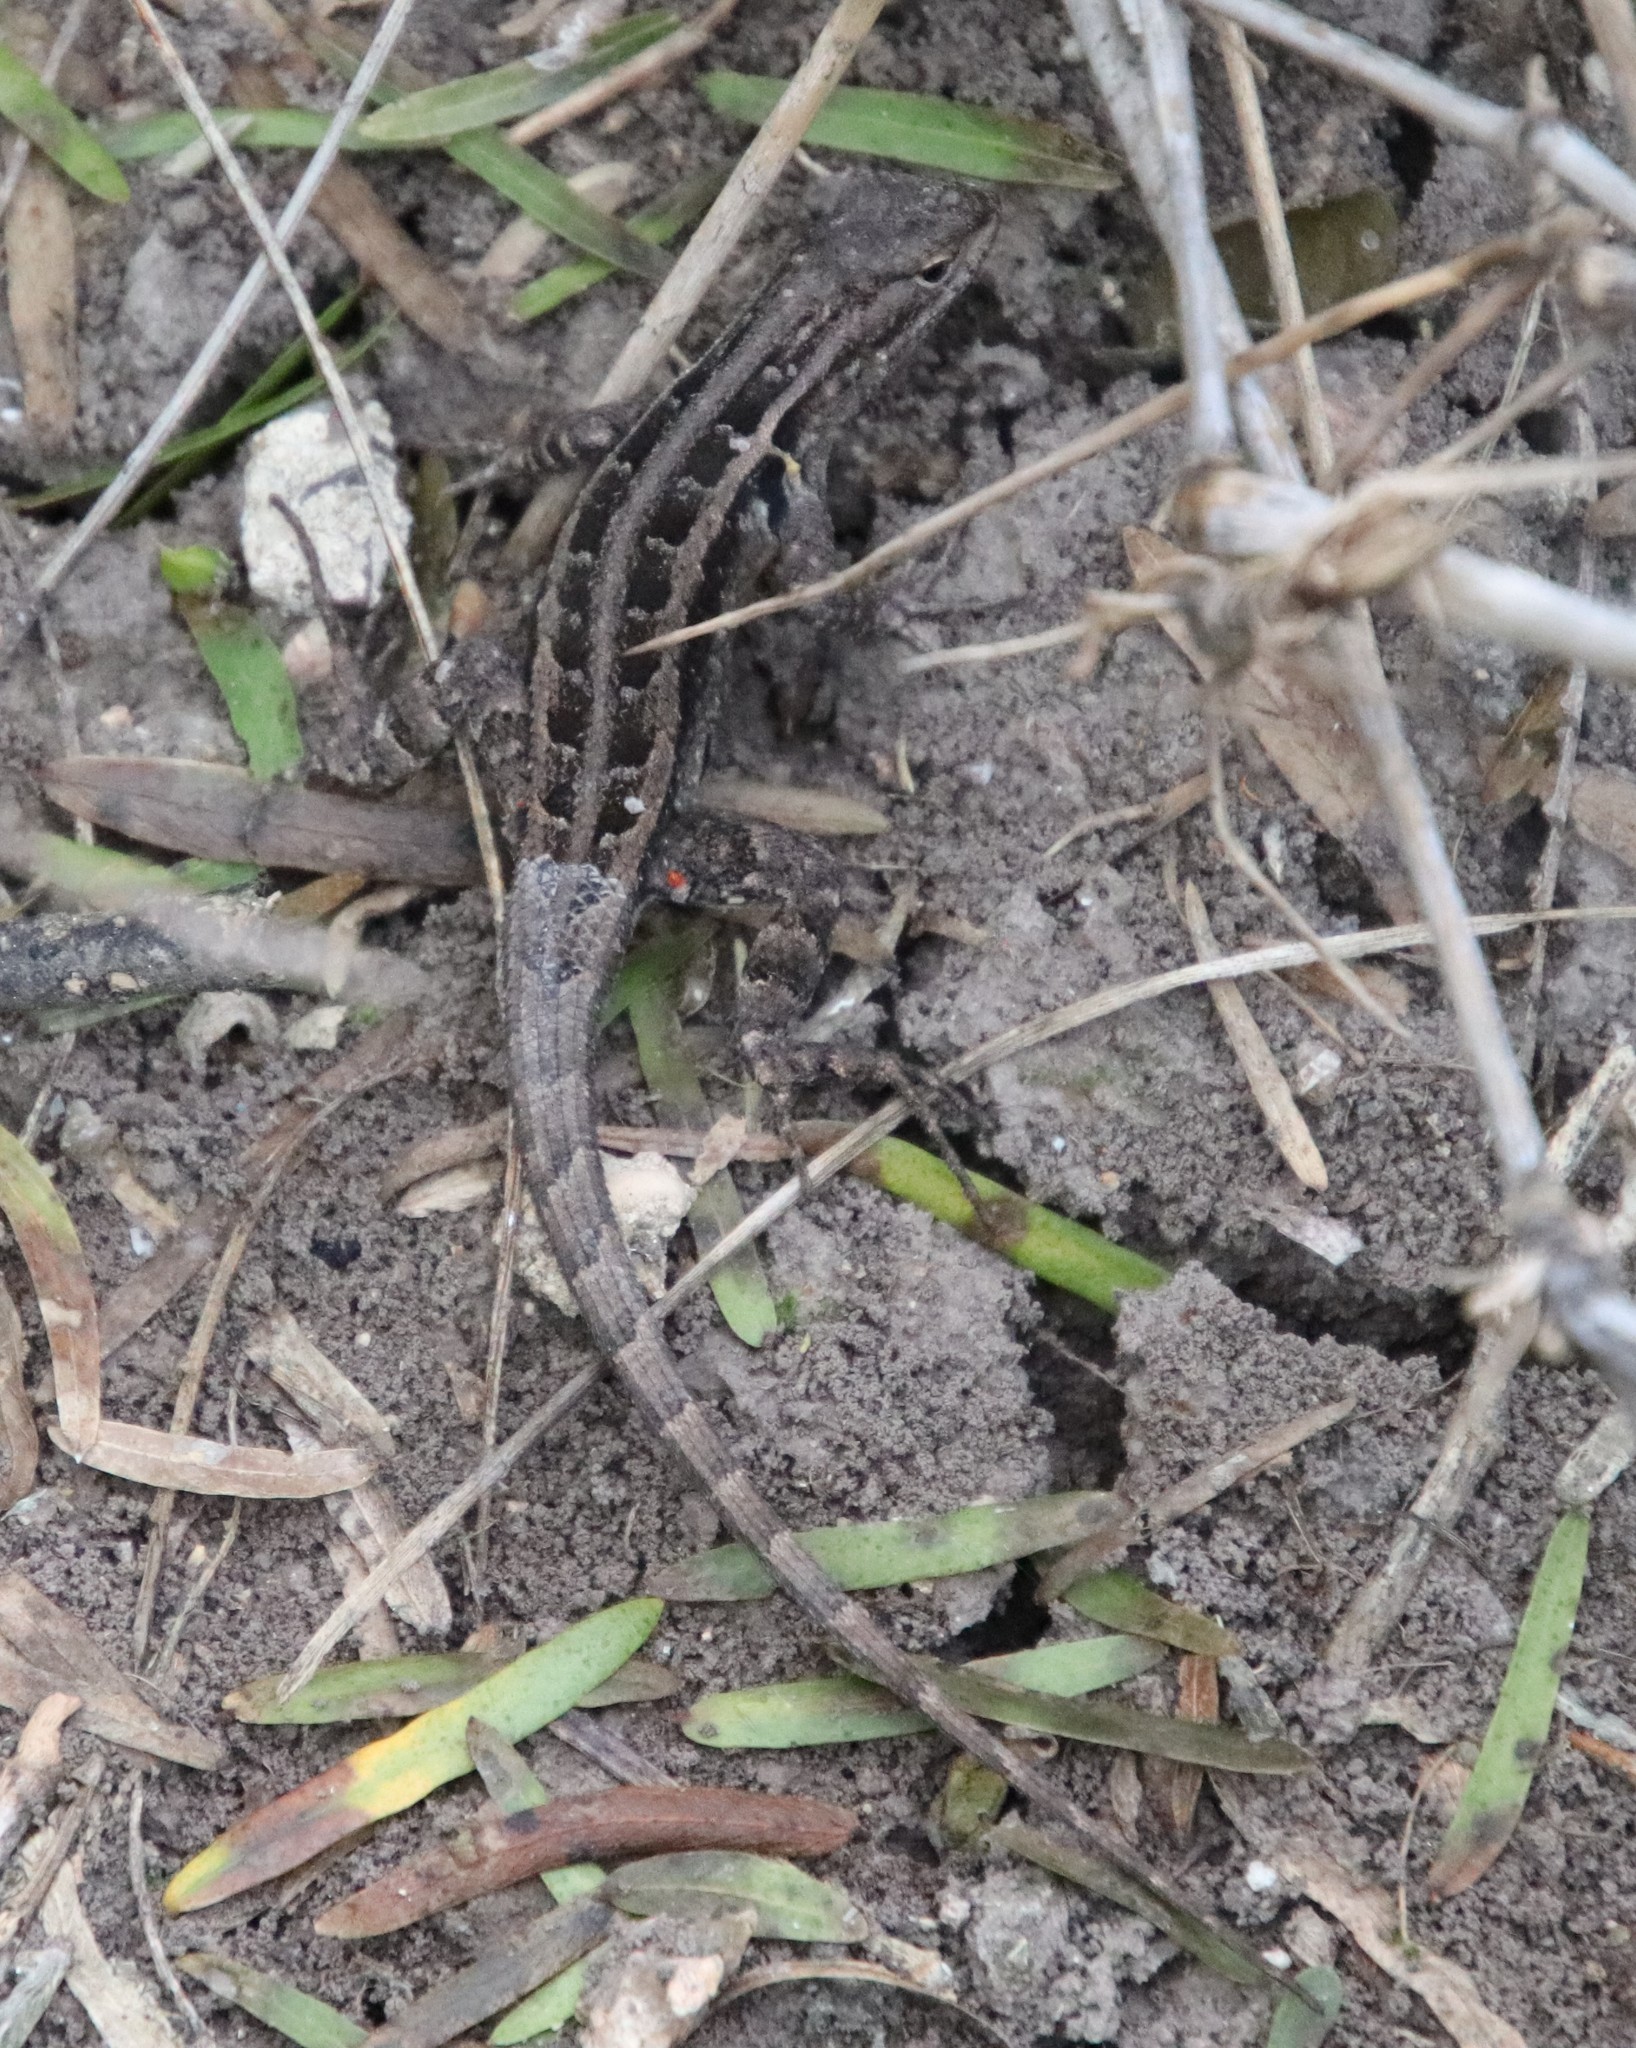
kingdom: Animalia
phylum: Chordata
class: Squamata
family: Phrynosomatidae
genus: Sceloporus
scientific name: Sceloporus variabilis
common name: Rosebelly lizard
